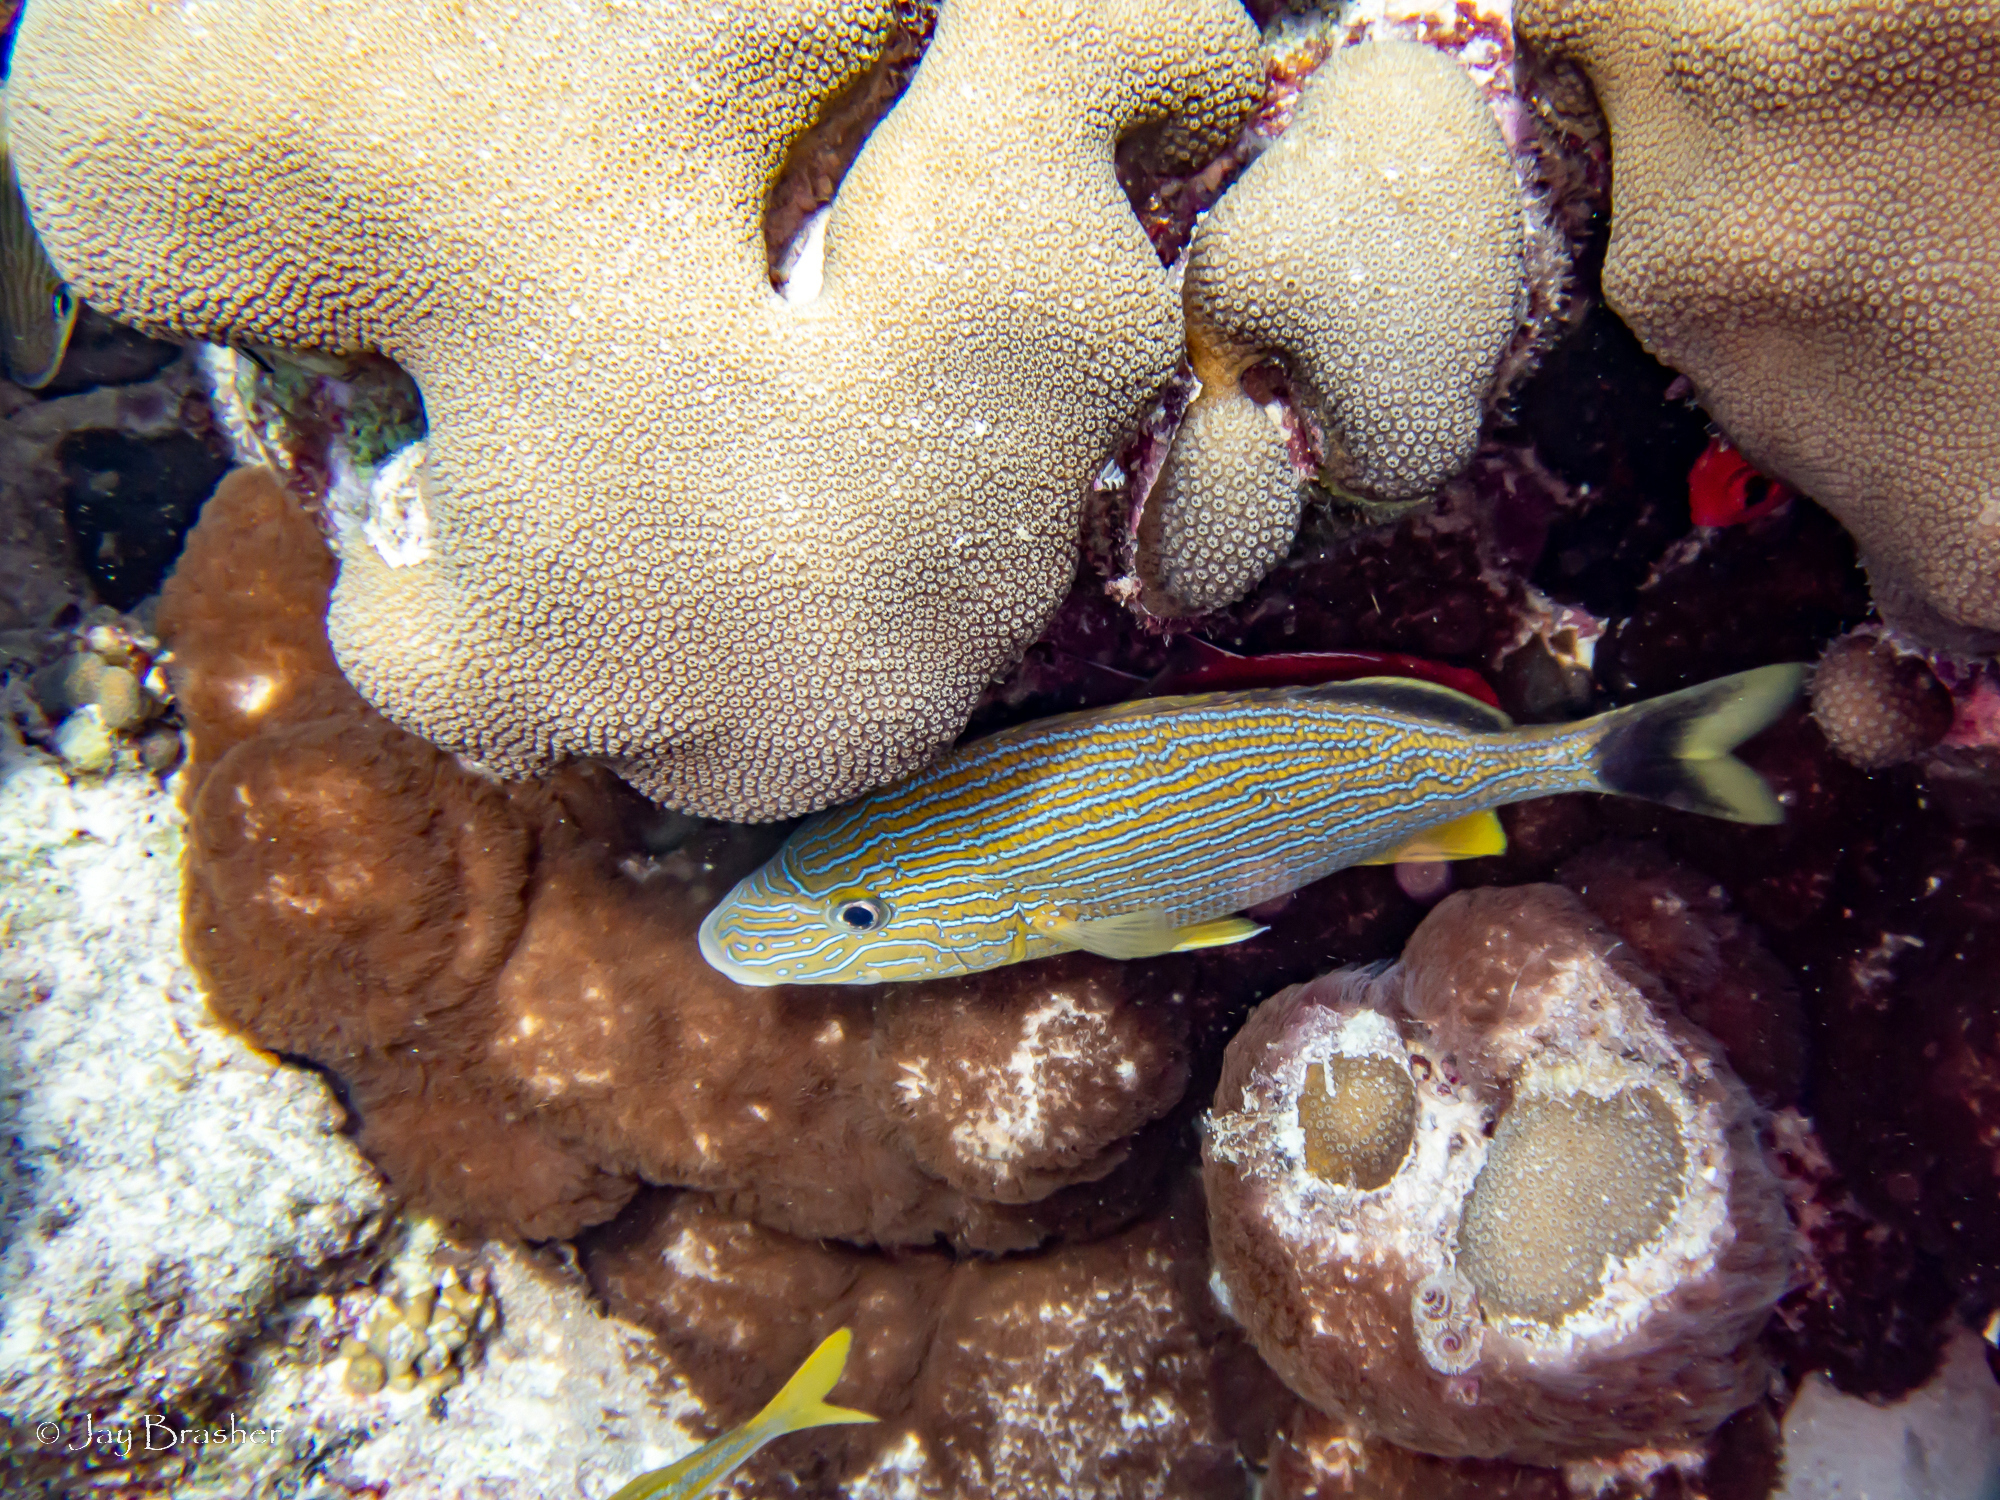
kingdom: Animalia
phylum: Cnidaria
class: Anthozoa
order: Scleralcyonacea
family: Erythropodiidae
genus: Erythropodium
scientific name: Erythropodium caribaeorum
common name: Encrusting gorgonian
